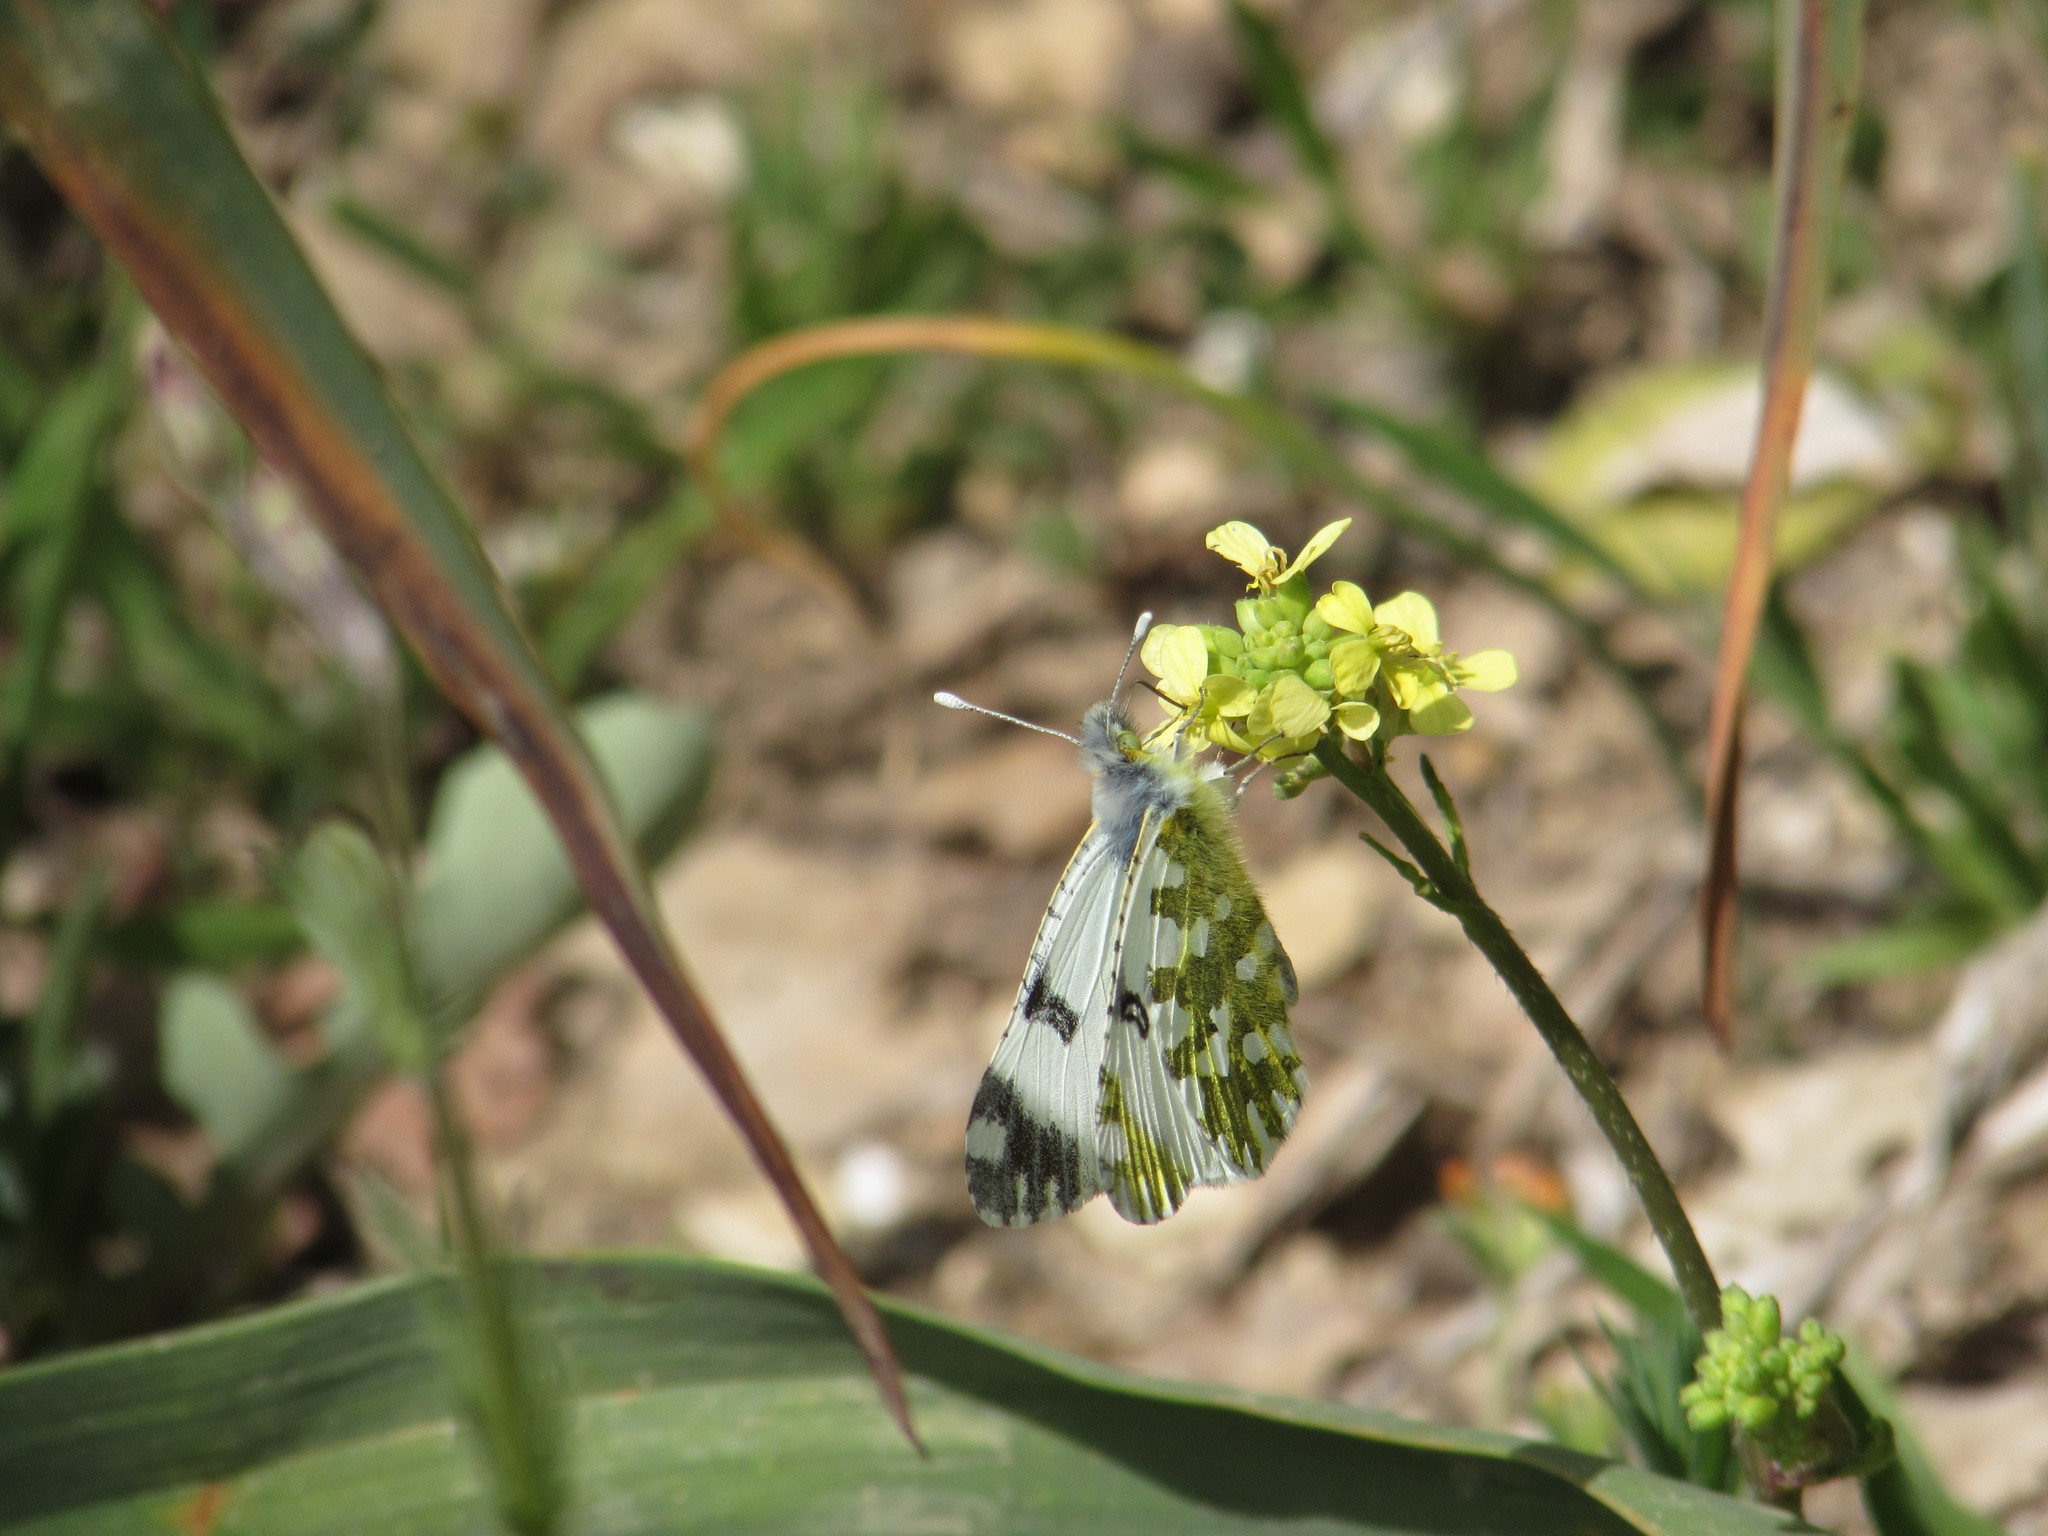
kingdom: Animalia
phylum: Arthropoda
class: Insecta
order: Lepidoptera
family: Pieridae
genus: Euchloe
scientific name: Euchloe ausonia
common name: Eastern dappled white
